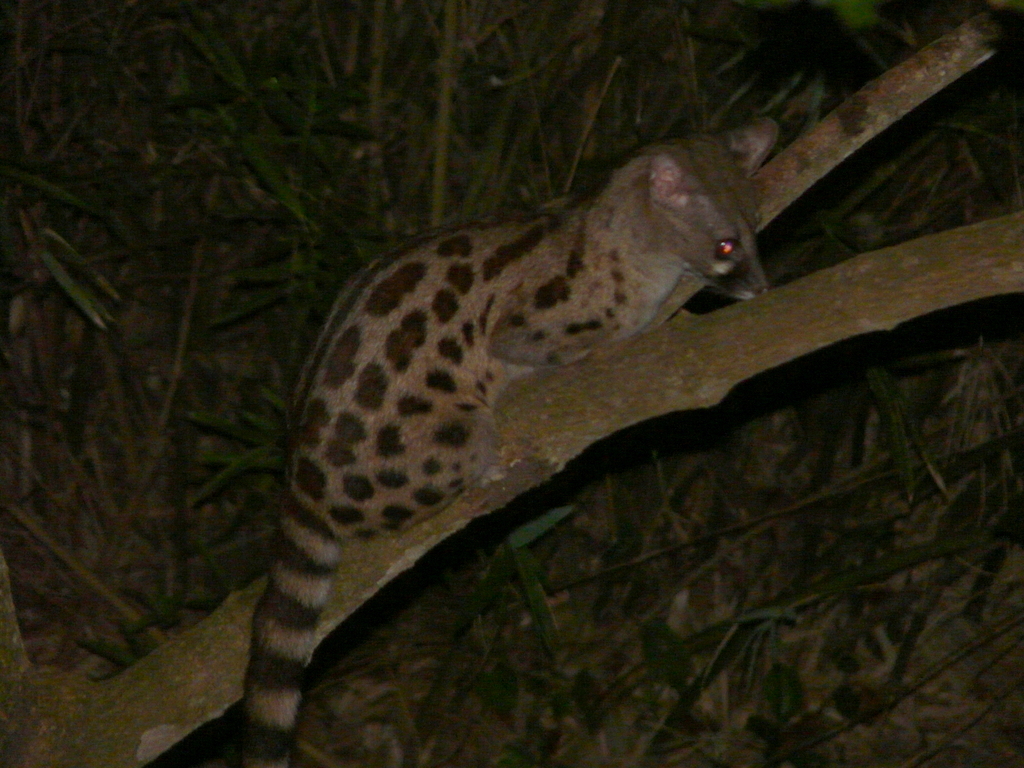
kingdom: Animalia
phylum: Chordata
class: Mammalia
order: Carnivora
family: Viverridae
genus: Genetta
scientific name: Genetta maculata
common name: Rusty-spotted genet
